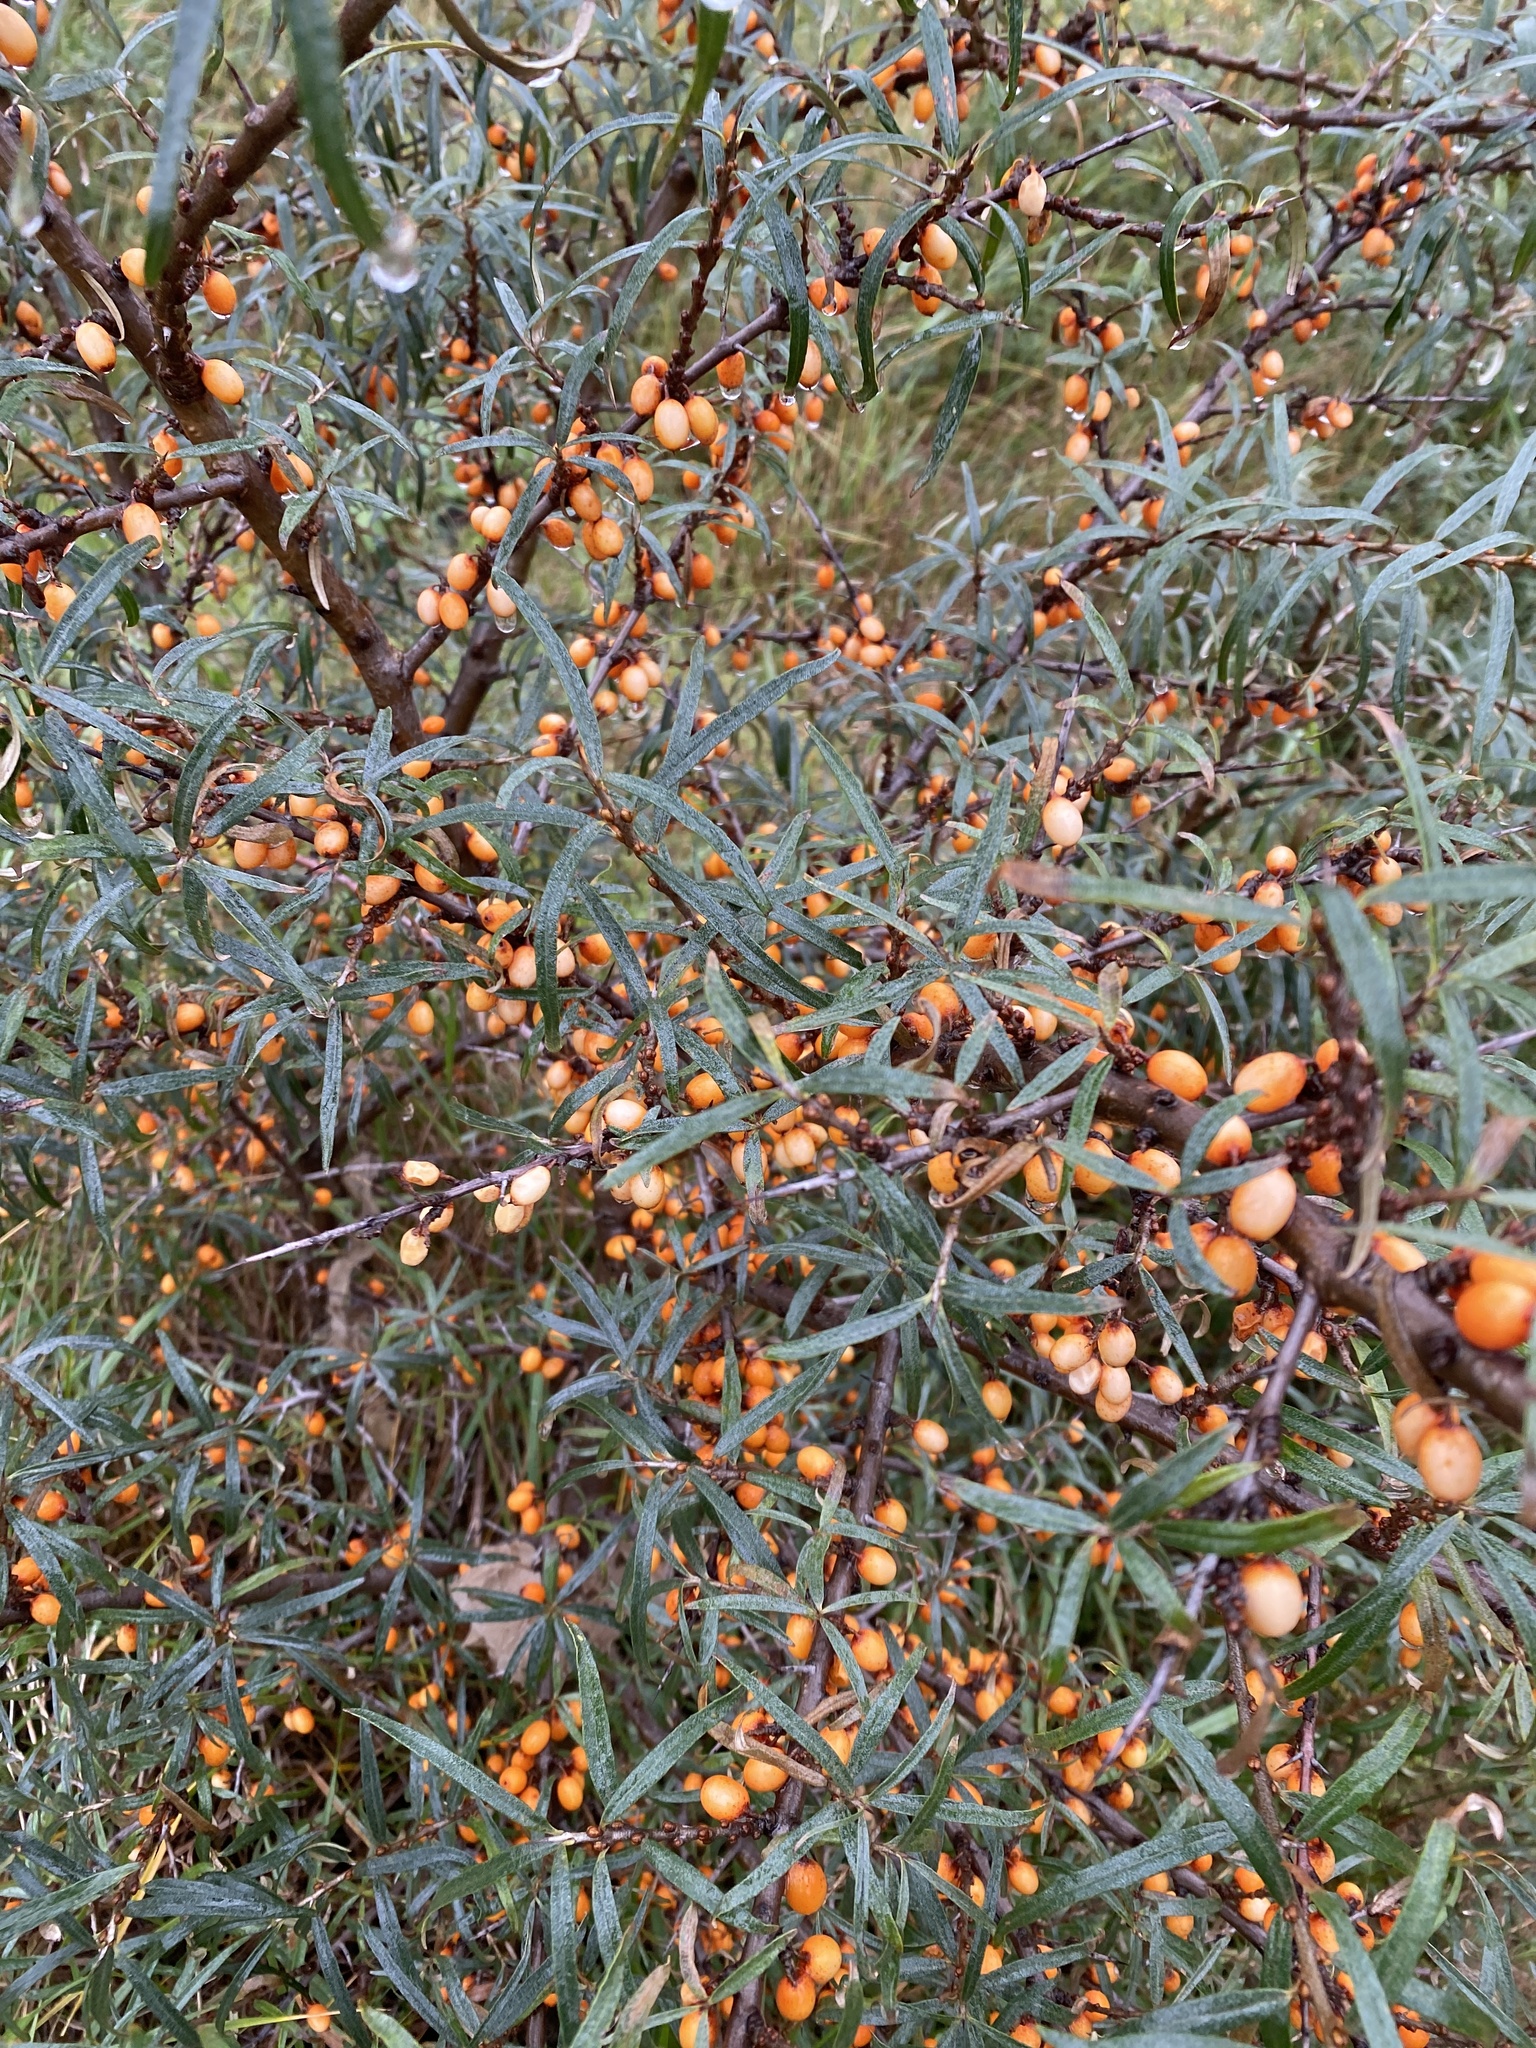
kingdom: Plantae
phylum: Tracheophyta
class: Magnoliopsida
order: Rosales
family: Elaeagnaceae
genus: Hippophae
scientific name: Hippophae rhamnoides
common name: Sea-buckthorn
